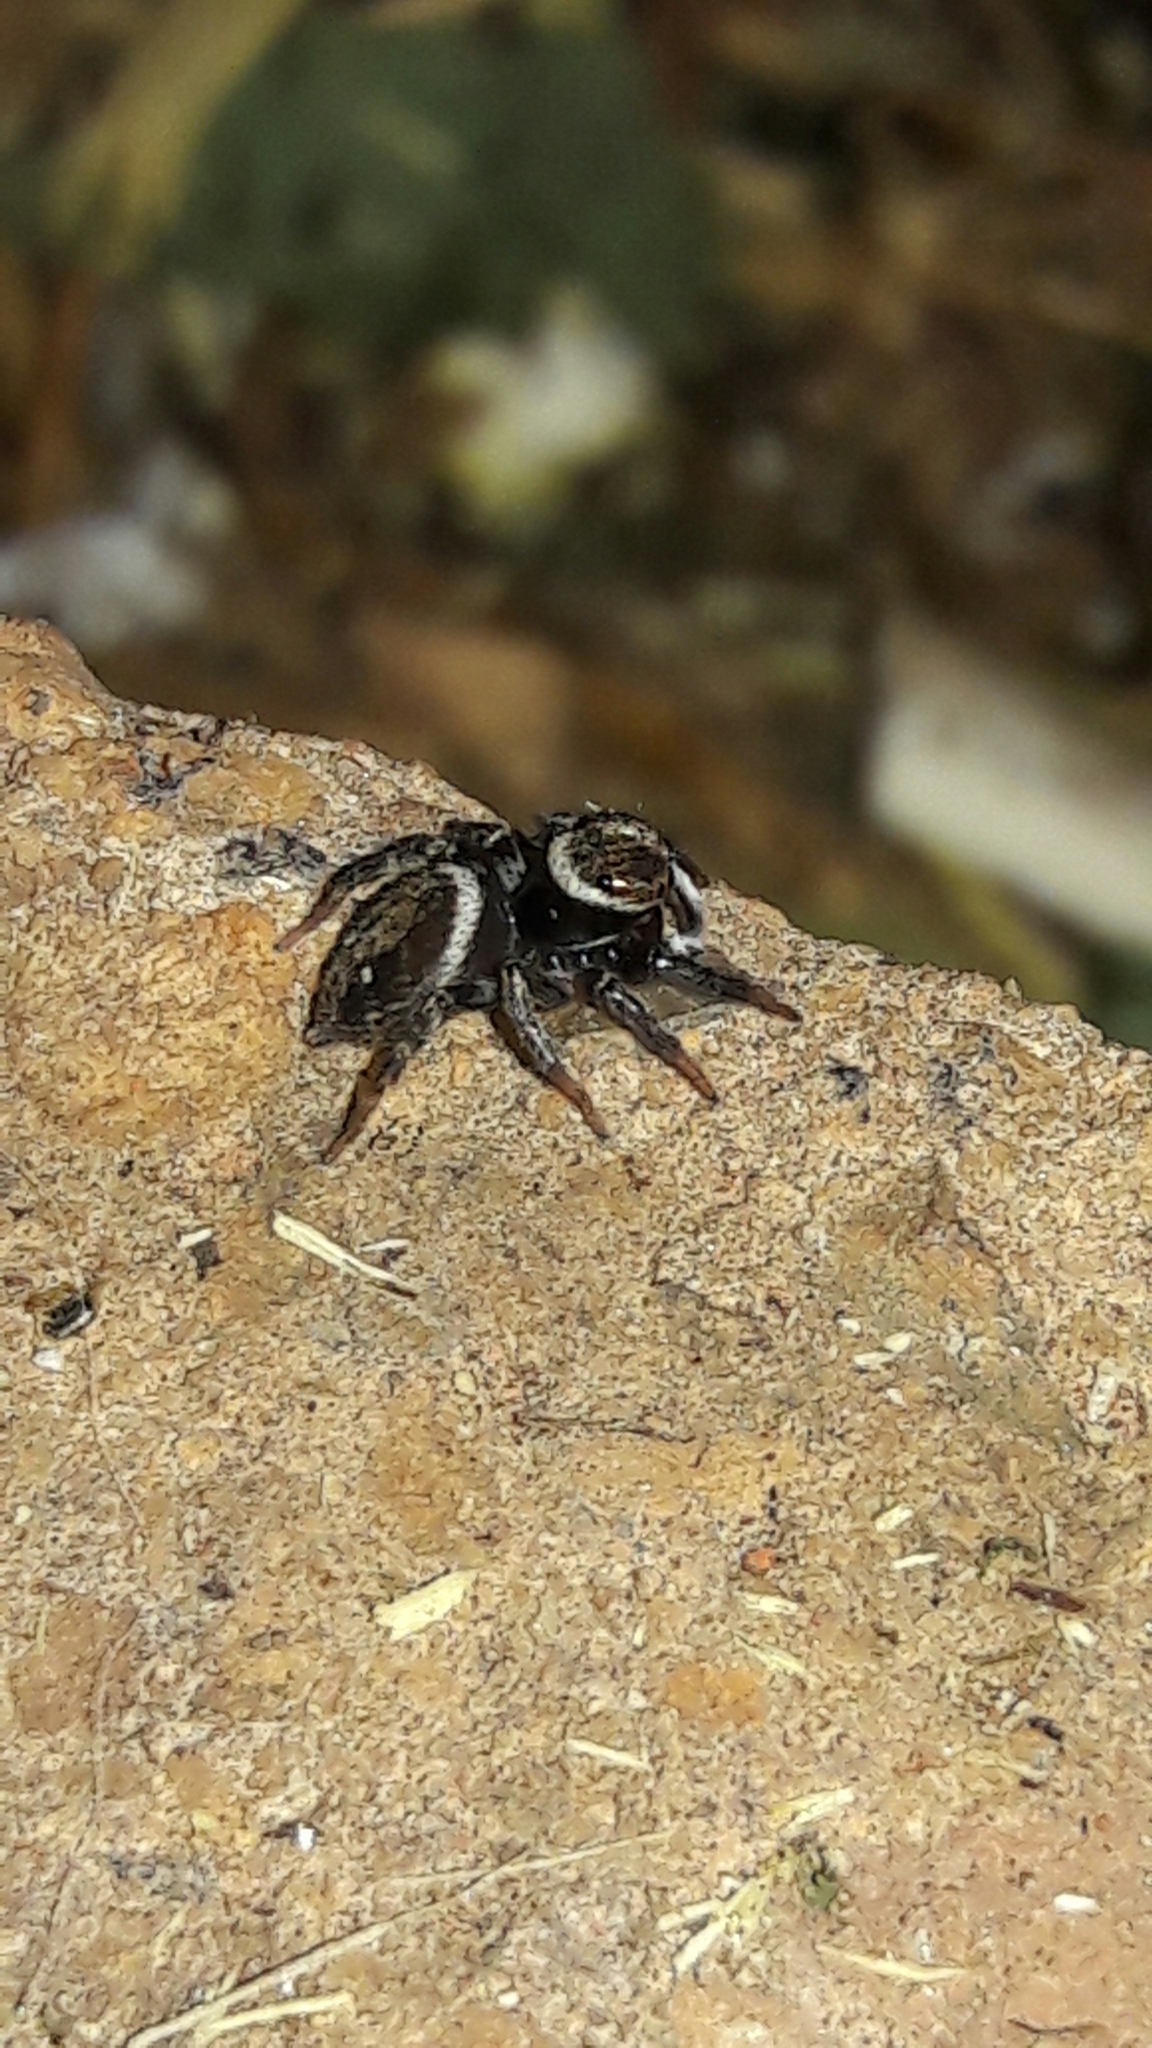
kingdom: Animalia
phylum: Arthropoda
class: Arachnida
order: Araneae
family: Salticidae
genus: Hasarius
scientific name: Hasarius adansoni
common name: Jumping spider
